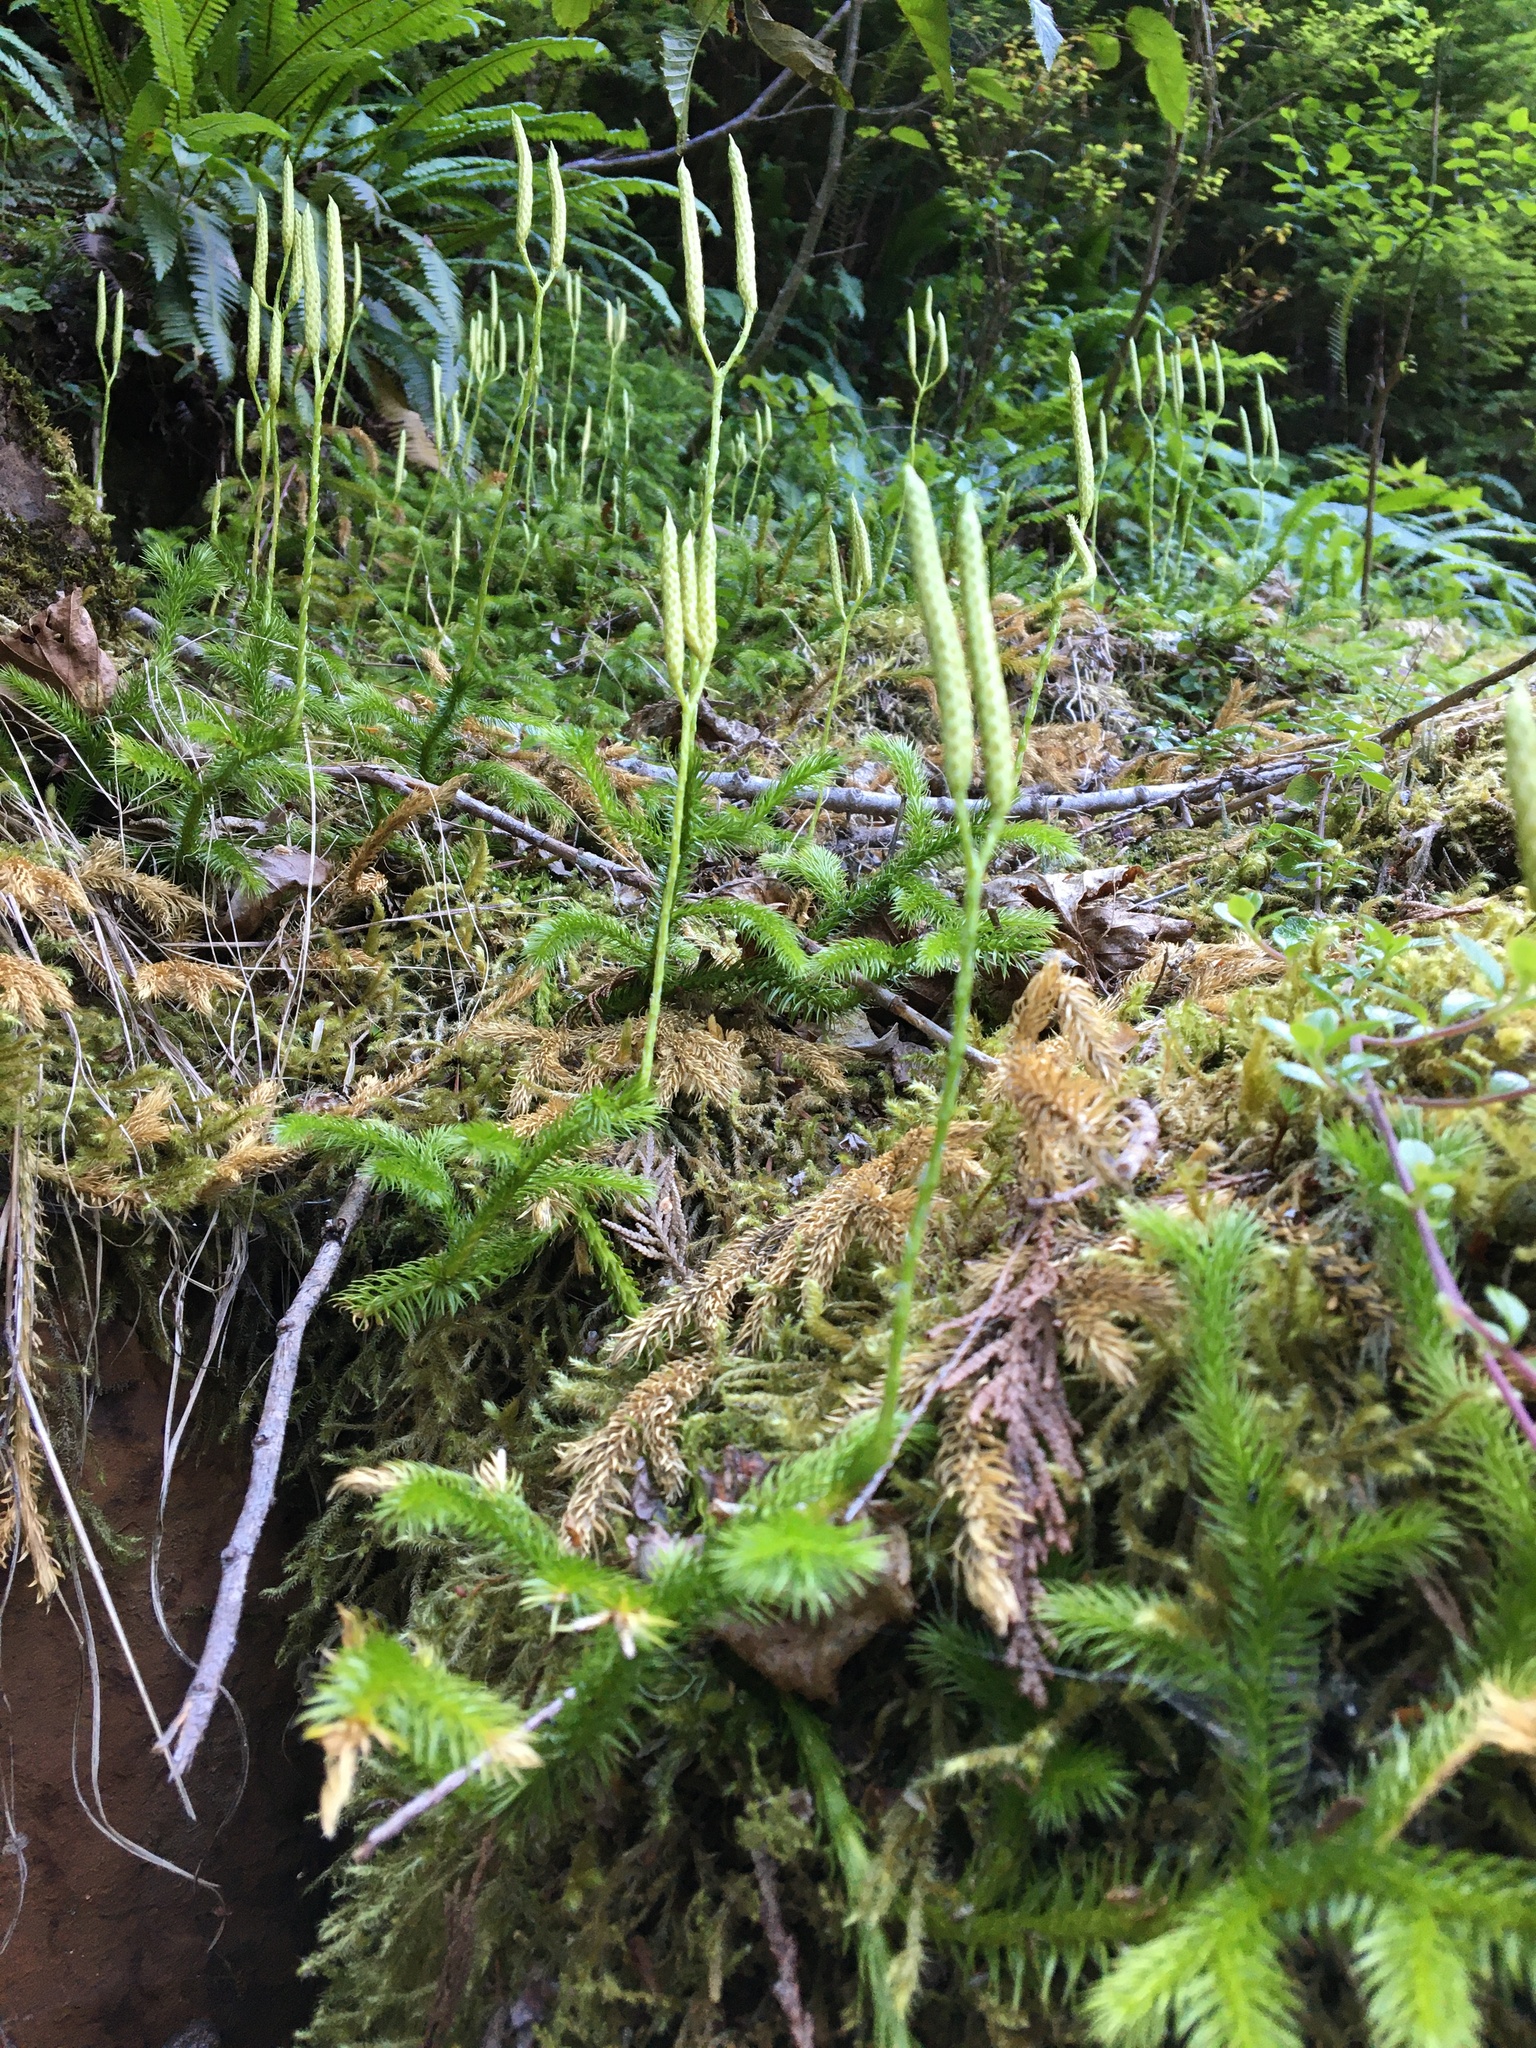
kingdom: Plantae
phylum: Tracheophyta
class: Lycopodiopsida
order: Lycopodiales
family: Lycopodiaceae
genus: Lycopodium
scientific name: Lycopodium clavatum
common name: Stag's-horn clubmoss
